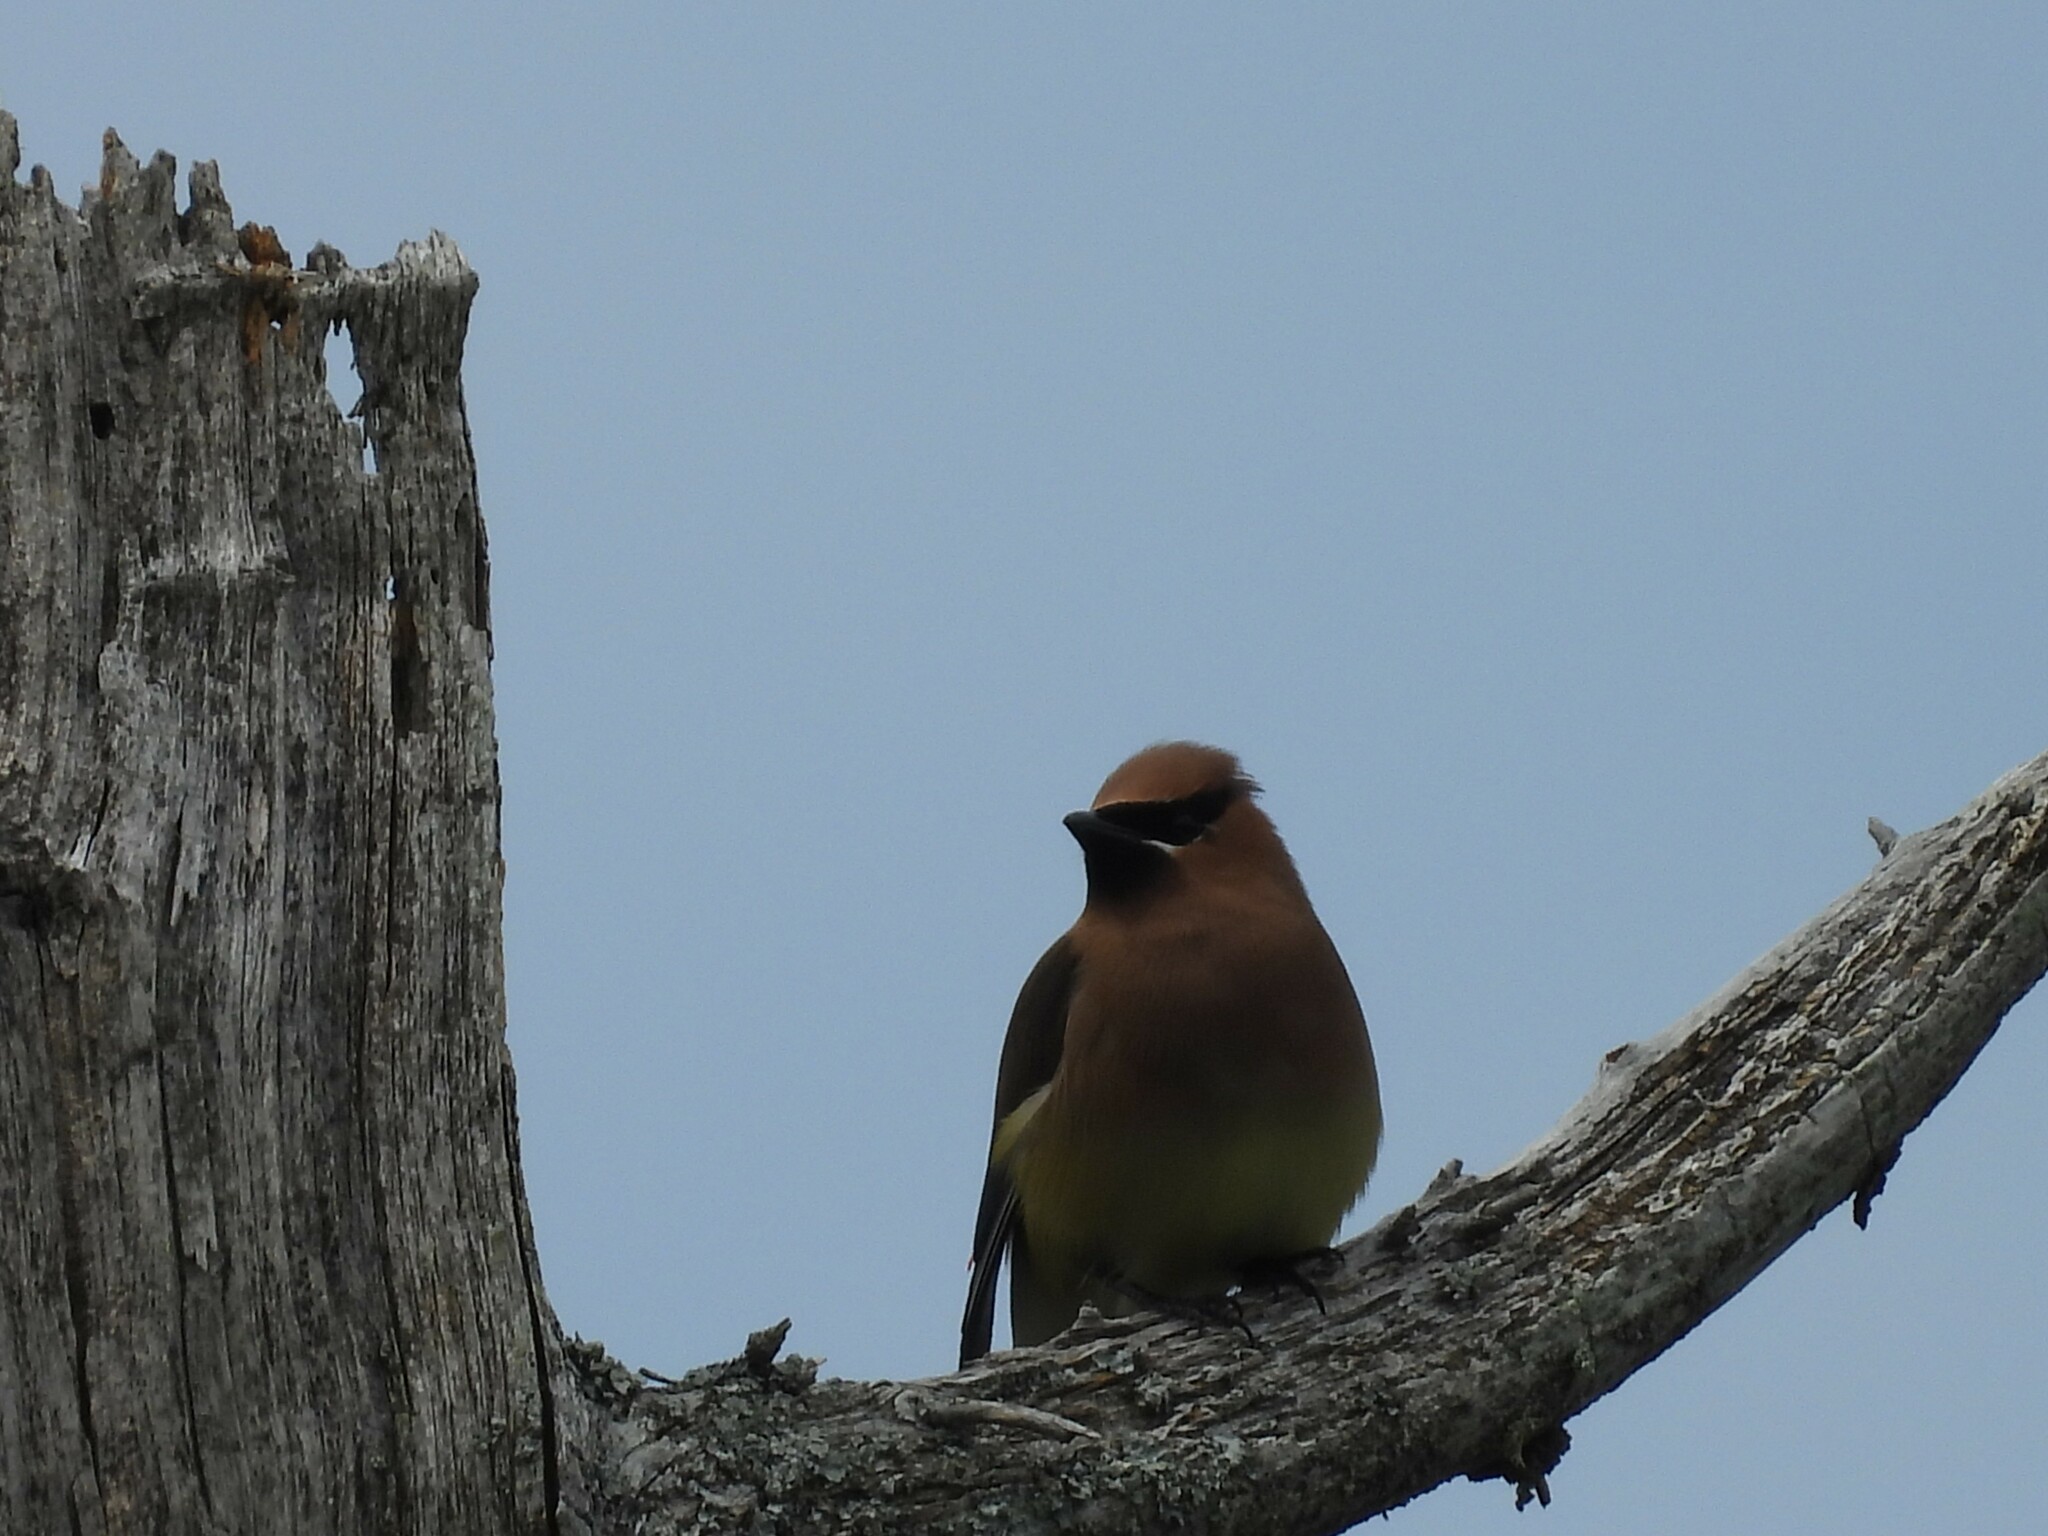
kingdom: Animalia
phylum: Chordata
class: Aves
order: Passeriformes
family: Bombycillidae
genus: Bombycilla
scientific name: Bombycilla cedrorum
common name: Cedar waxwing
